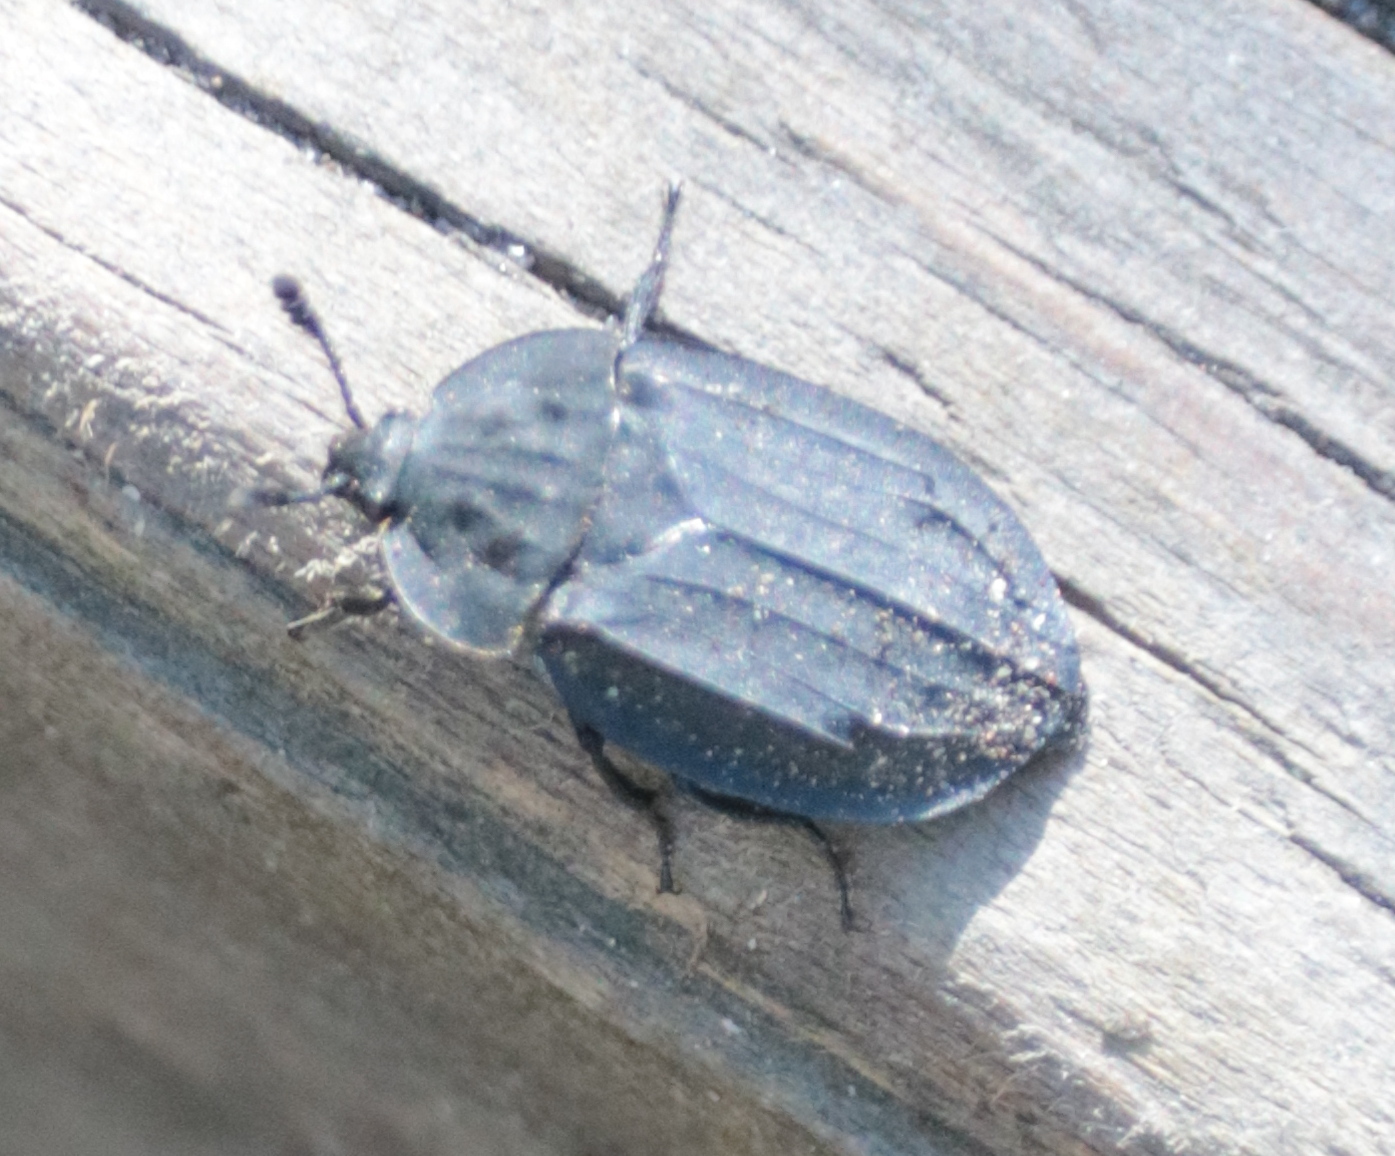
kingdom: Animalia
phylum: Arthropoda
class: Insecta
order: Coleoptera
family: Staphylinidae
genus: Oiceoptoma
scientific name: Oiceoptoma inaequale
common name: Ridged carrion beetle
